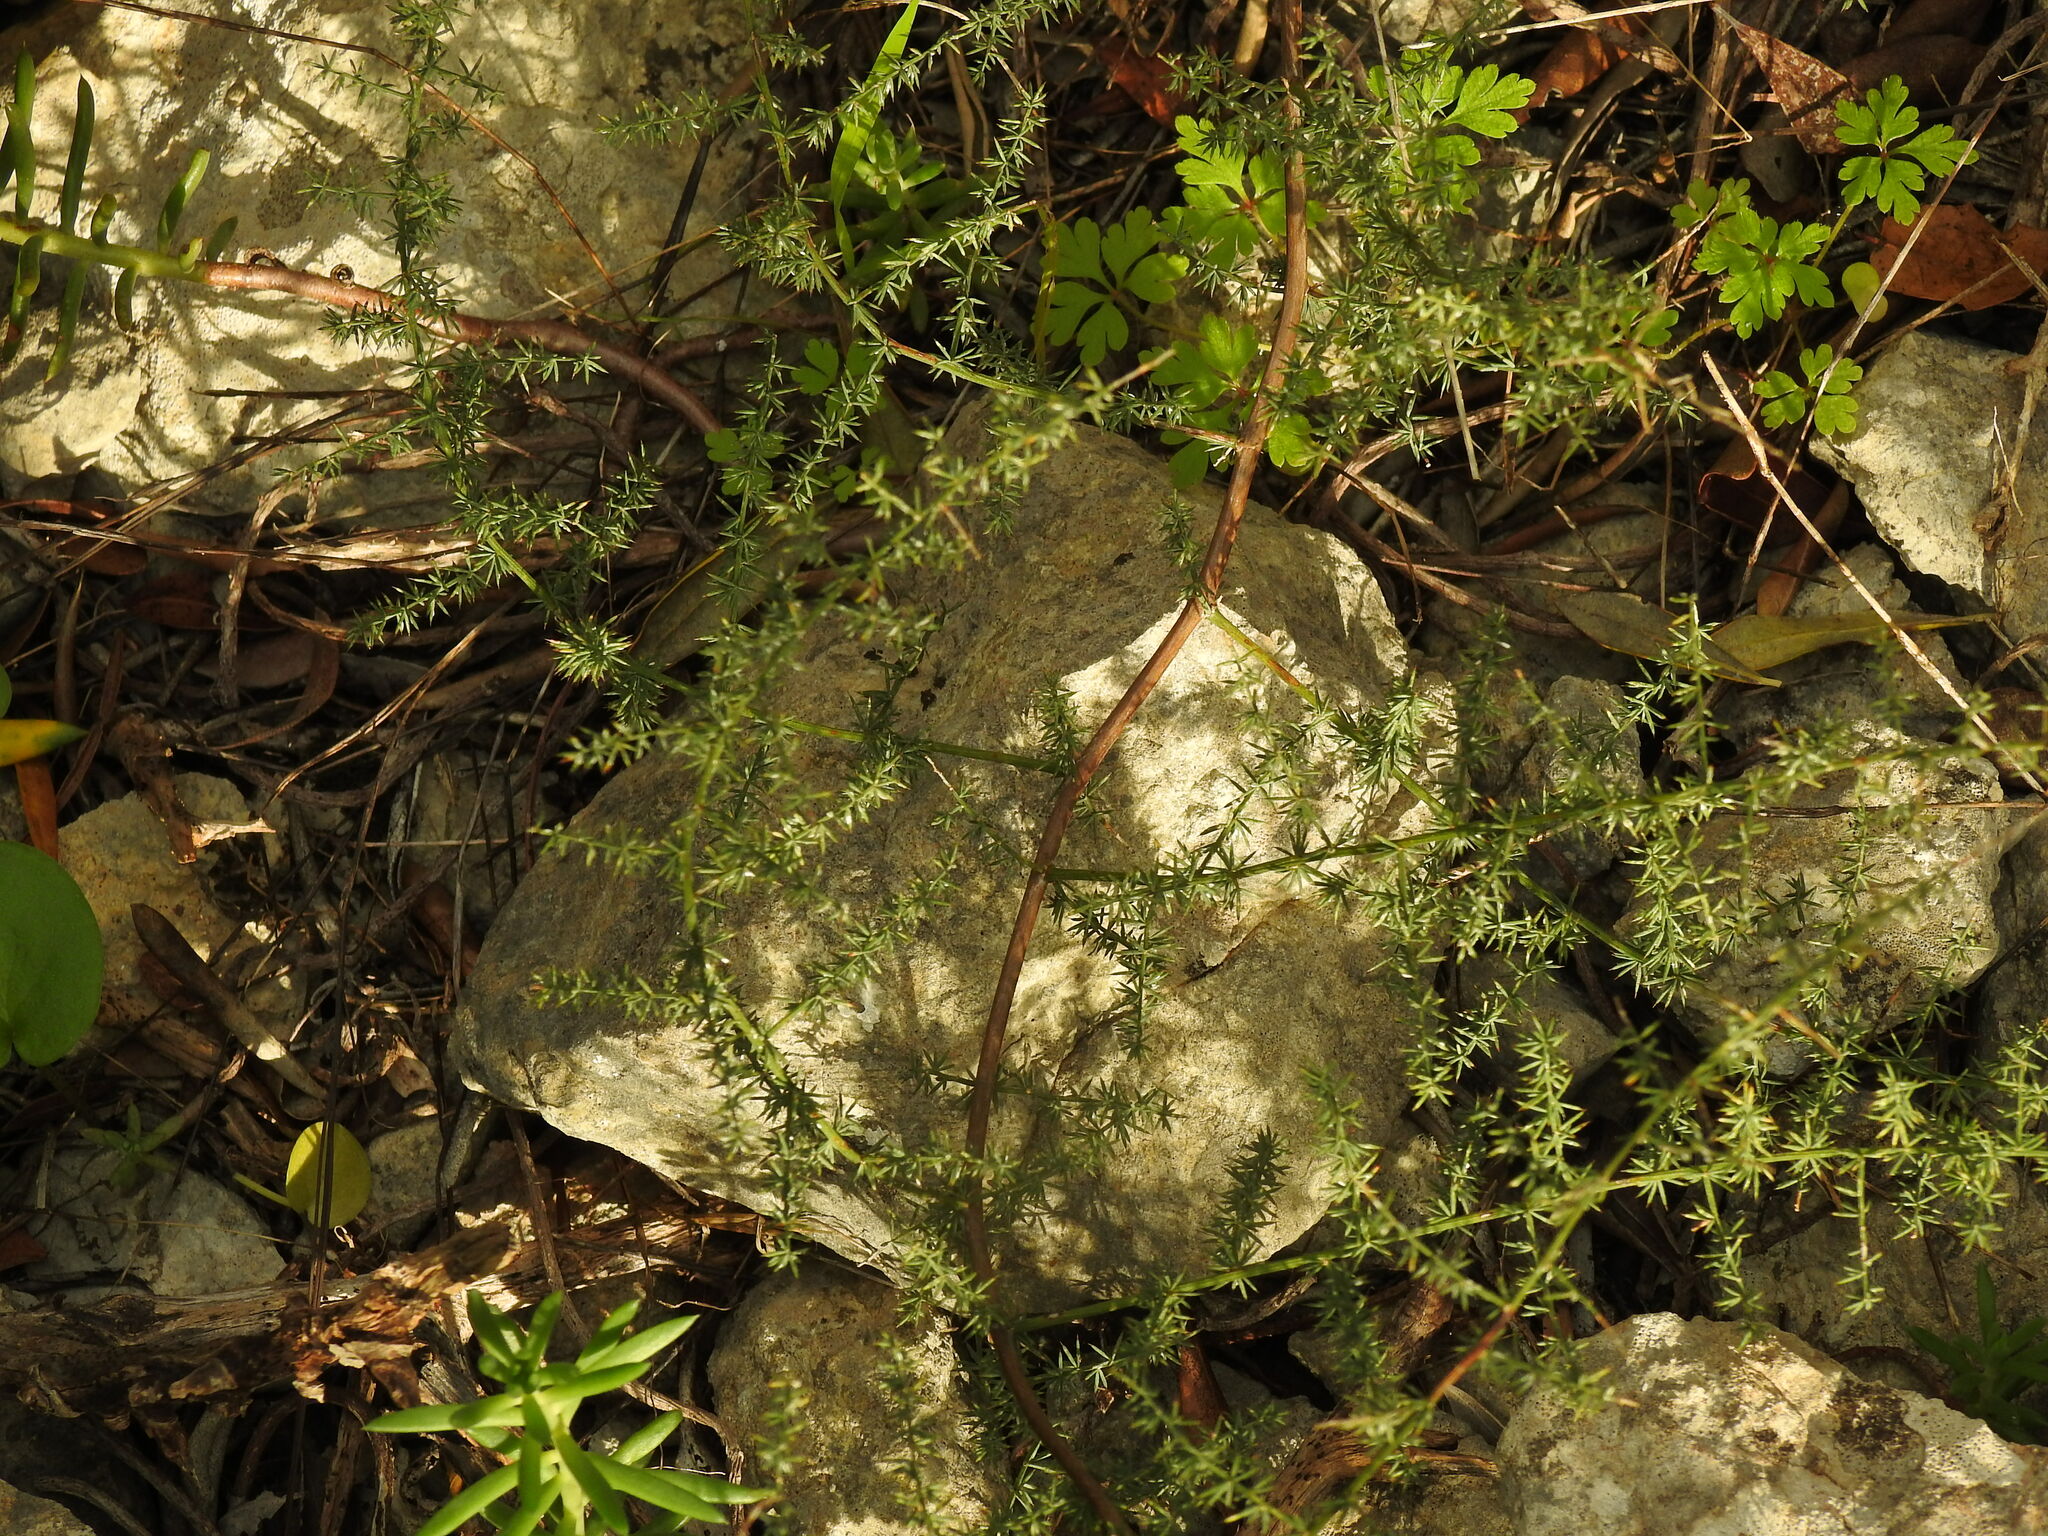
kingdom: Plantae
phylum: Tracheophyta
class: Liliopsida
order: Asparagales
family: Asparagaceae
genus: Asparagus
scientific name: Asparagus acutifolius
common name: Wild asparagus
